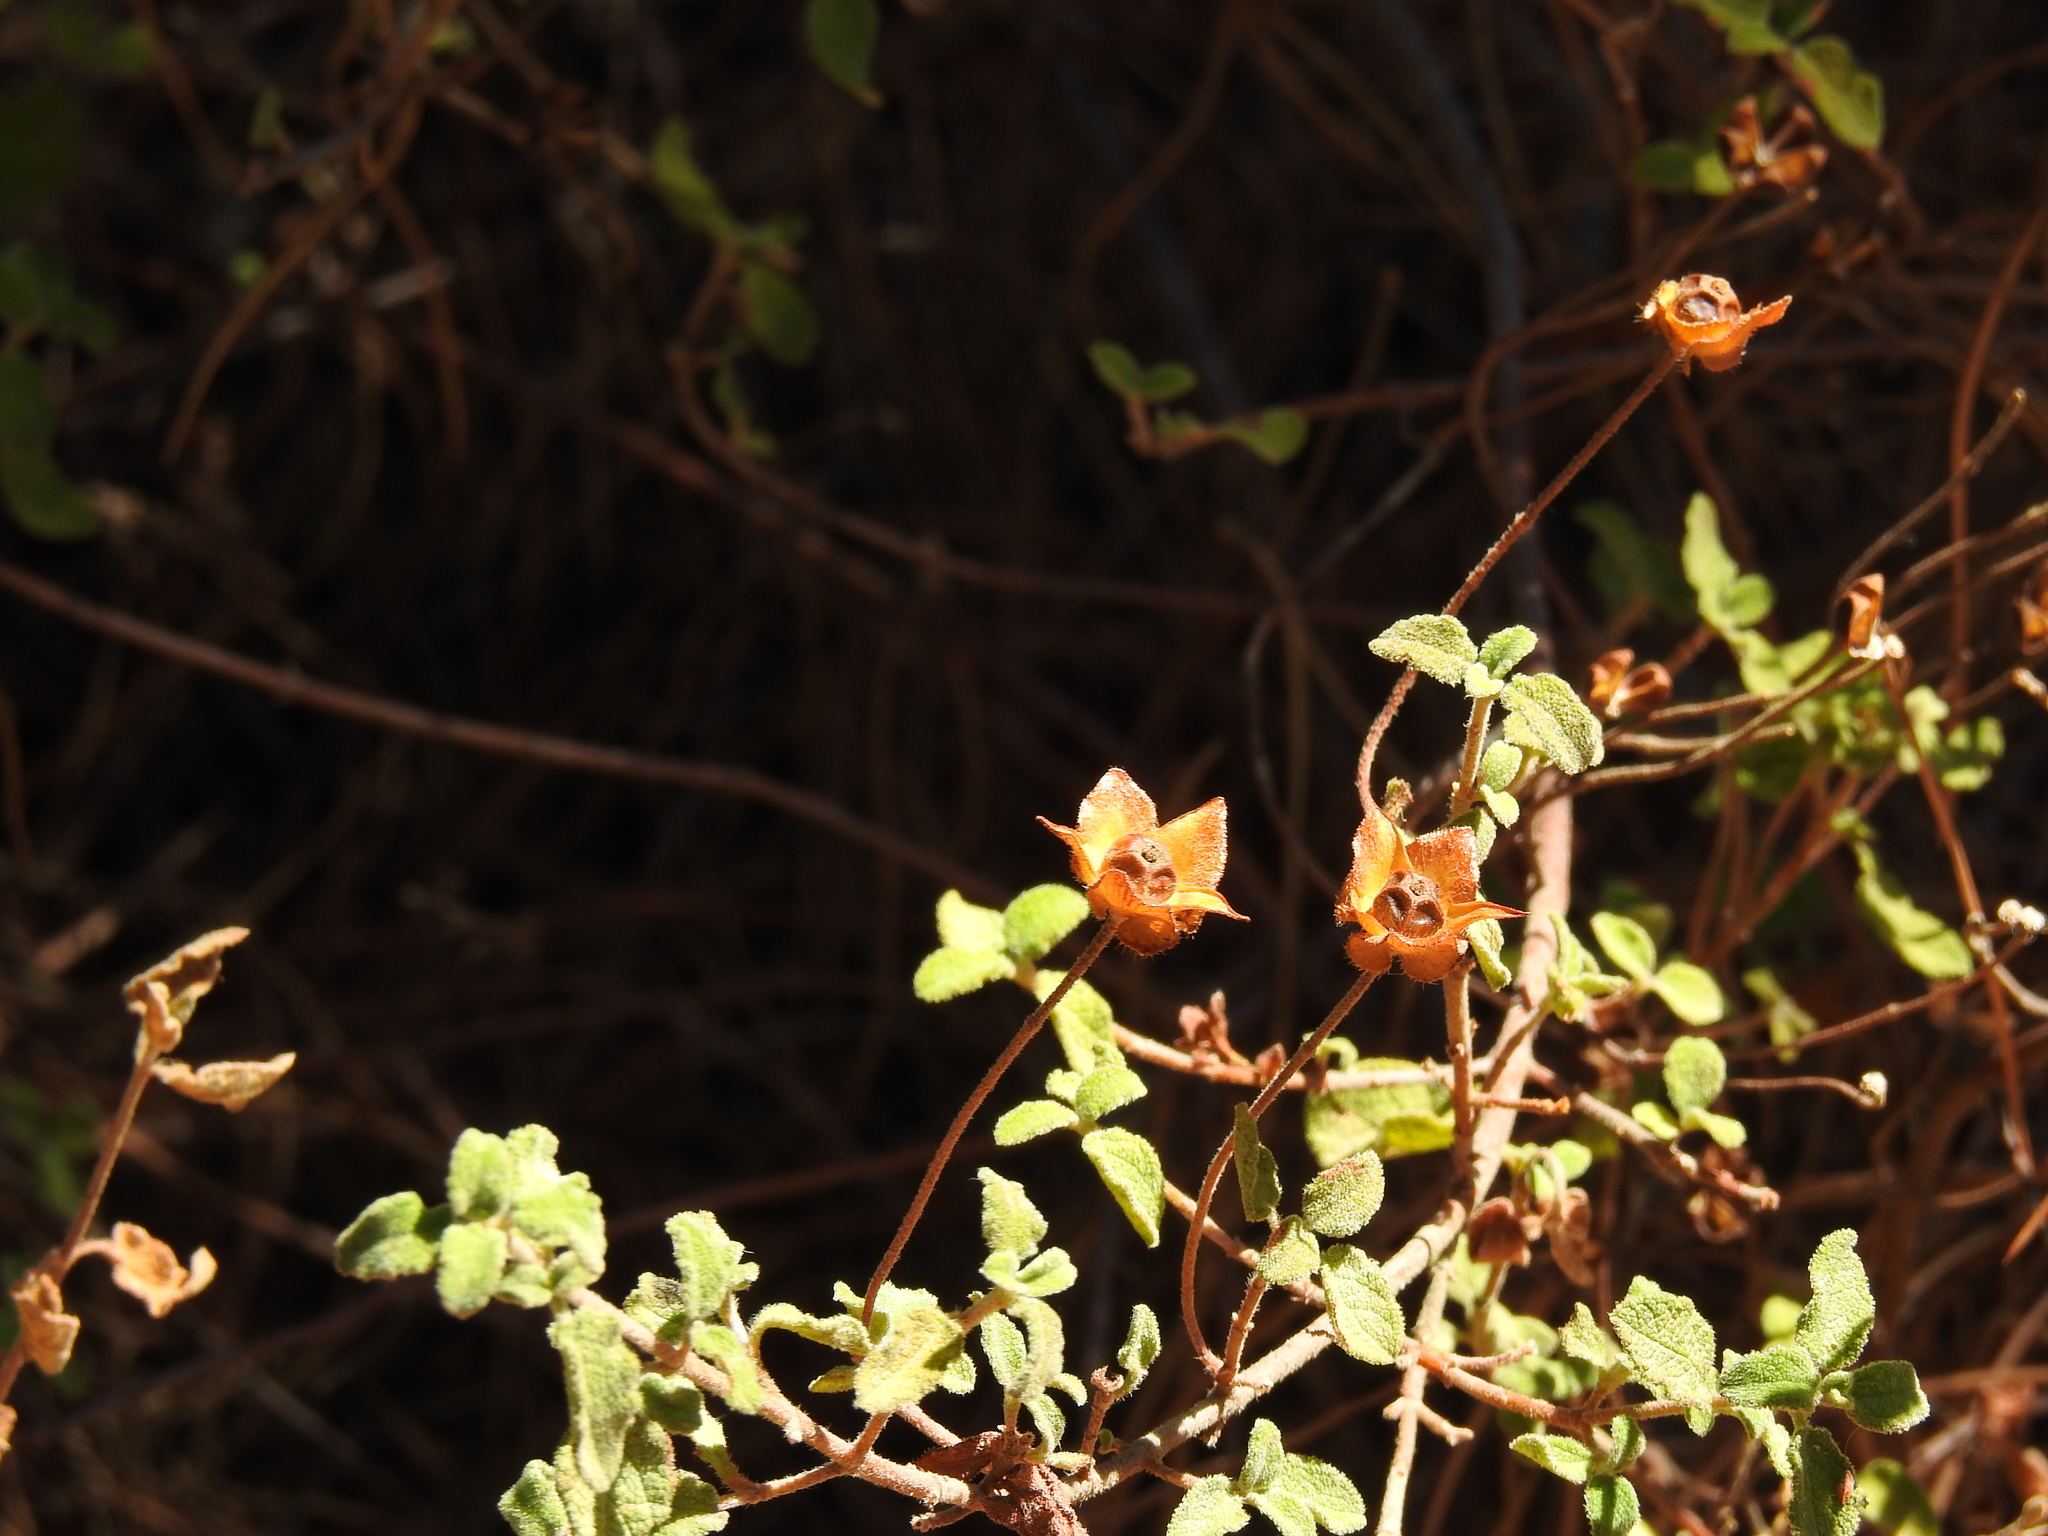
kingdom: Plantae
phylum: Tracheophyta
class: Magnoliopsida
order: Malvales
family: Cistaceae
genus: Cistus
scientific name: Cistus salviifolius
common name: Salvia cistus
